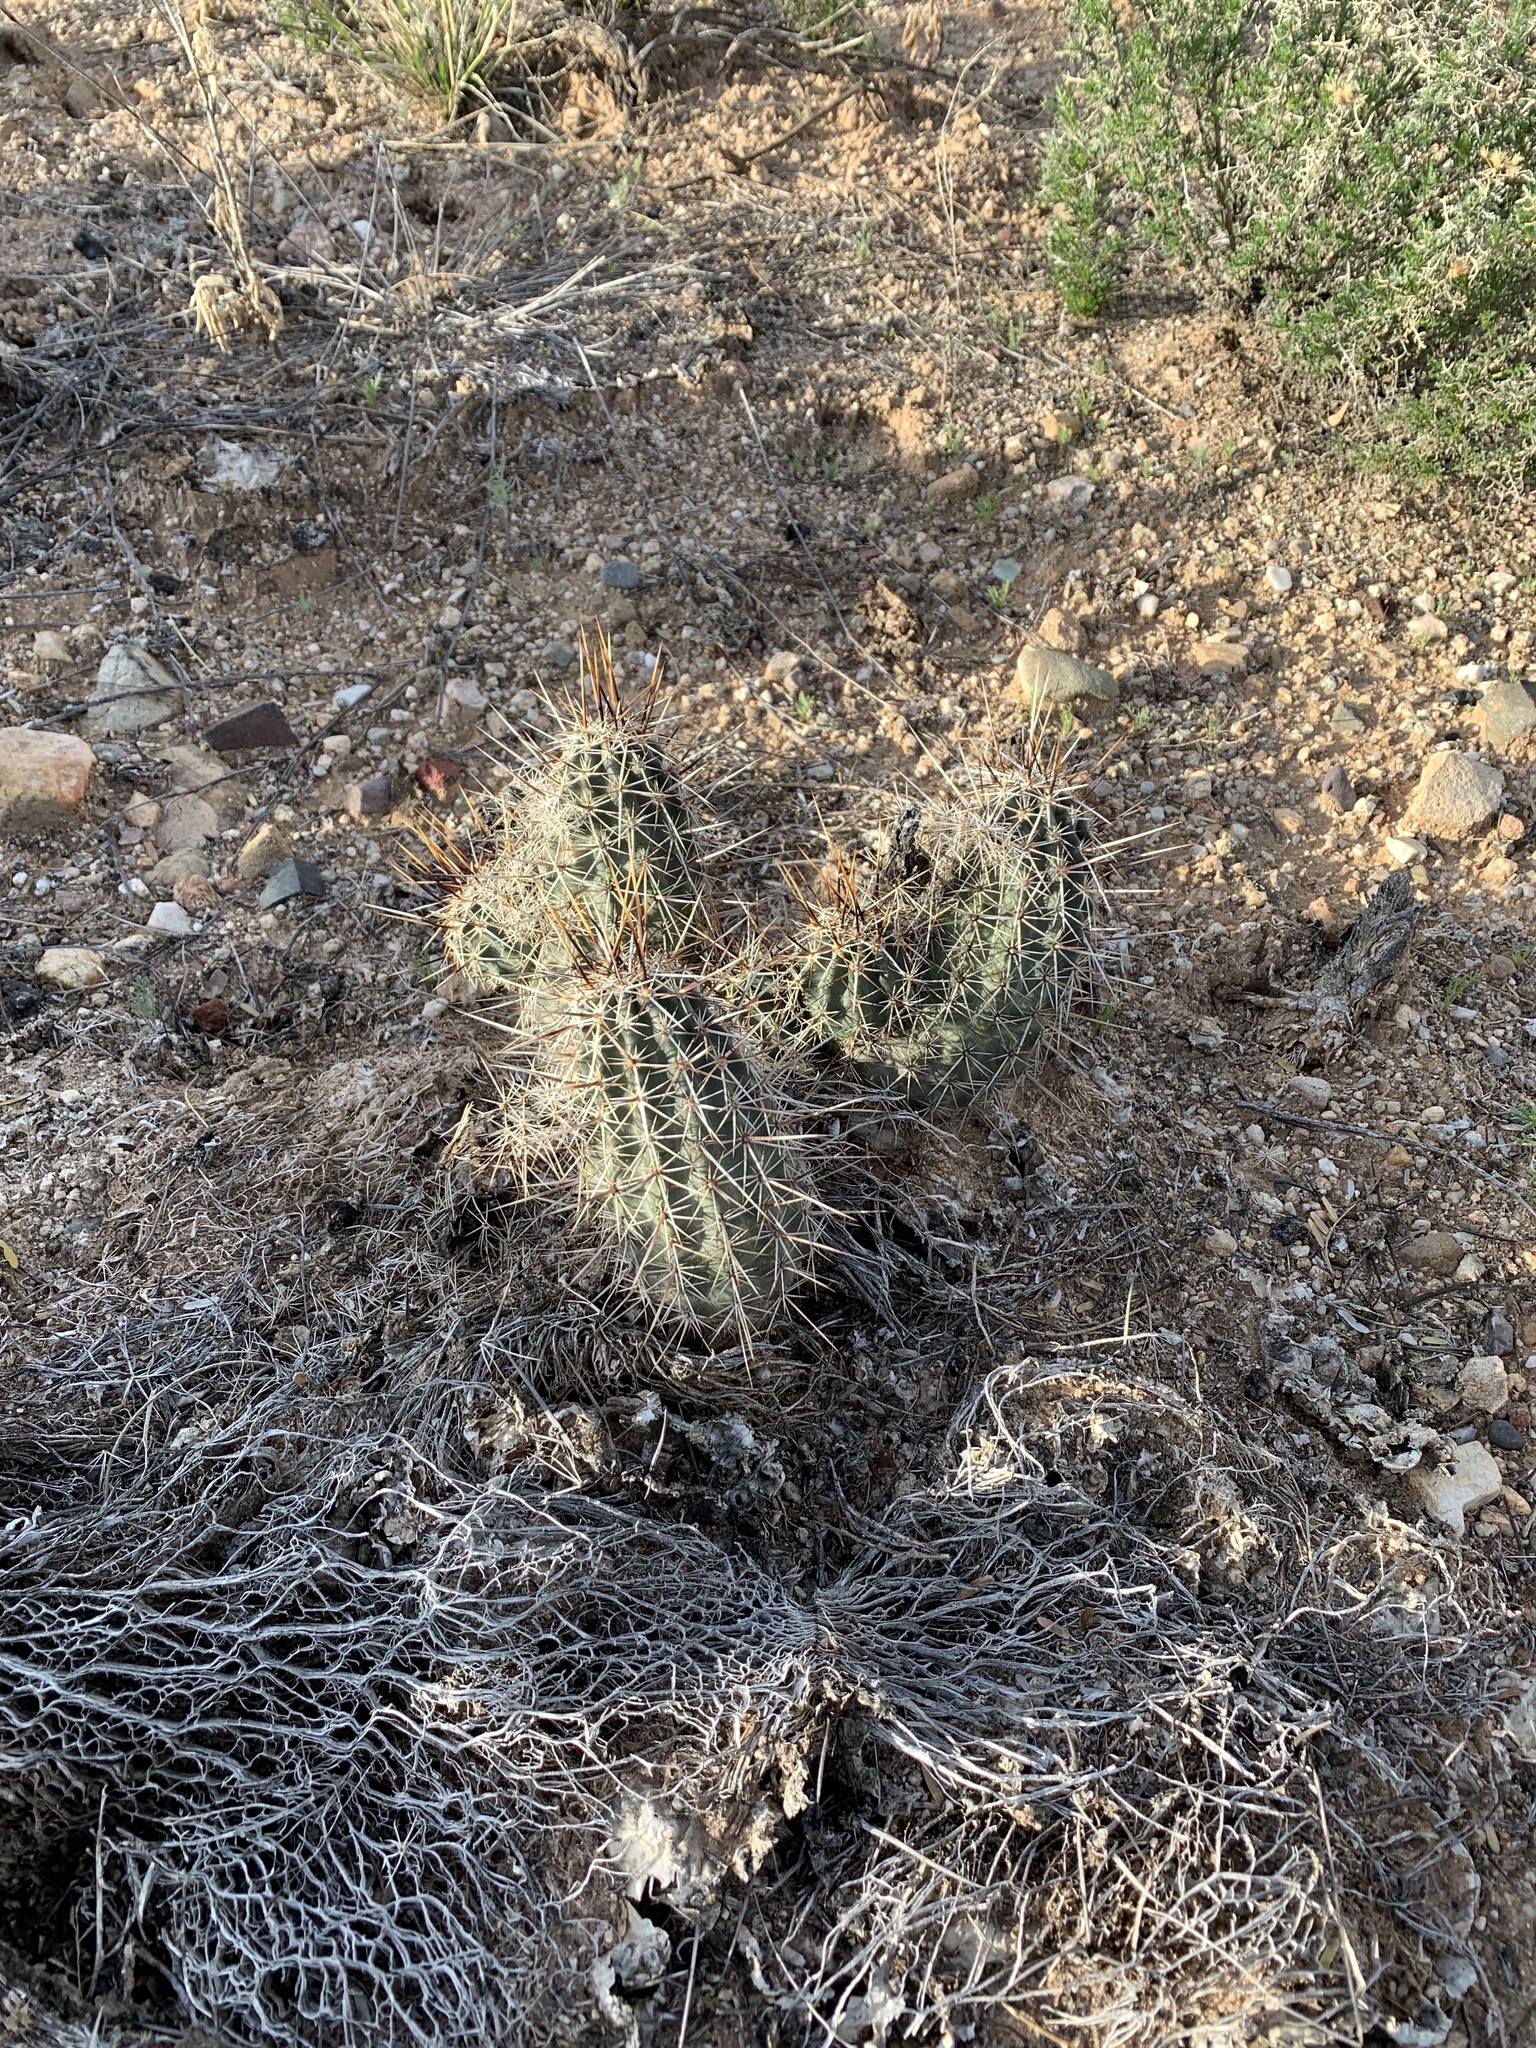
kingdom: Plantae
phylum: Tracheophyta
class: Magnoliopsida
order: Caryophyllales
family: Cactaceae
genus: Echinocereus
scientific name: Echinocereus fasciculatus
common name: Bundle hedgehog
